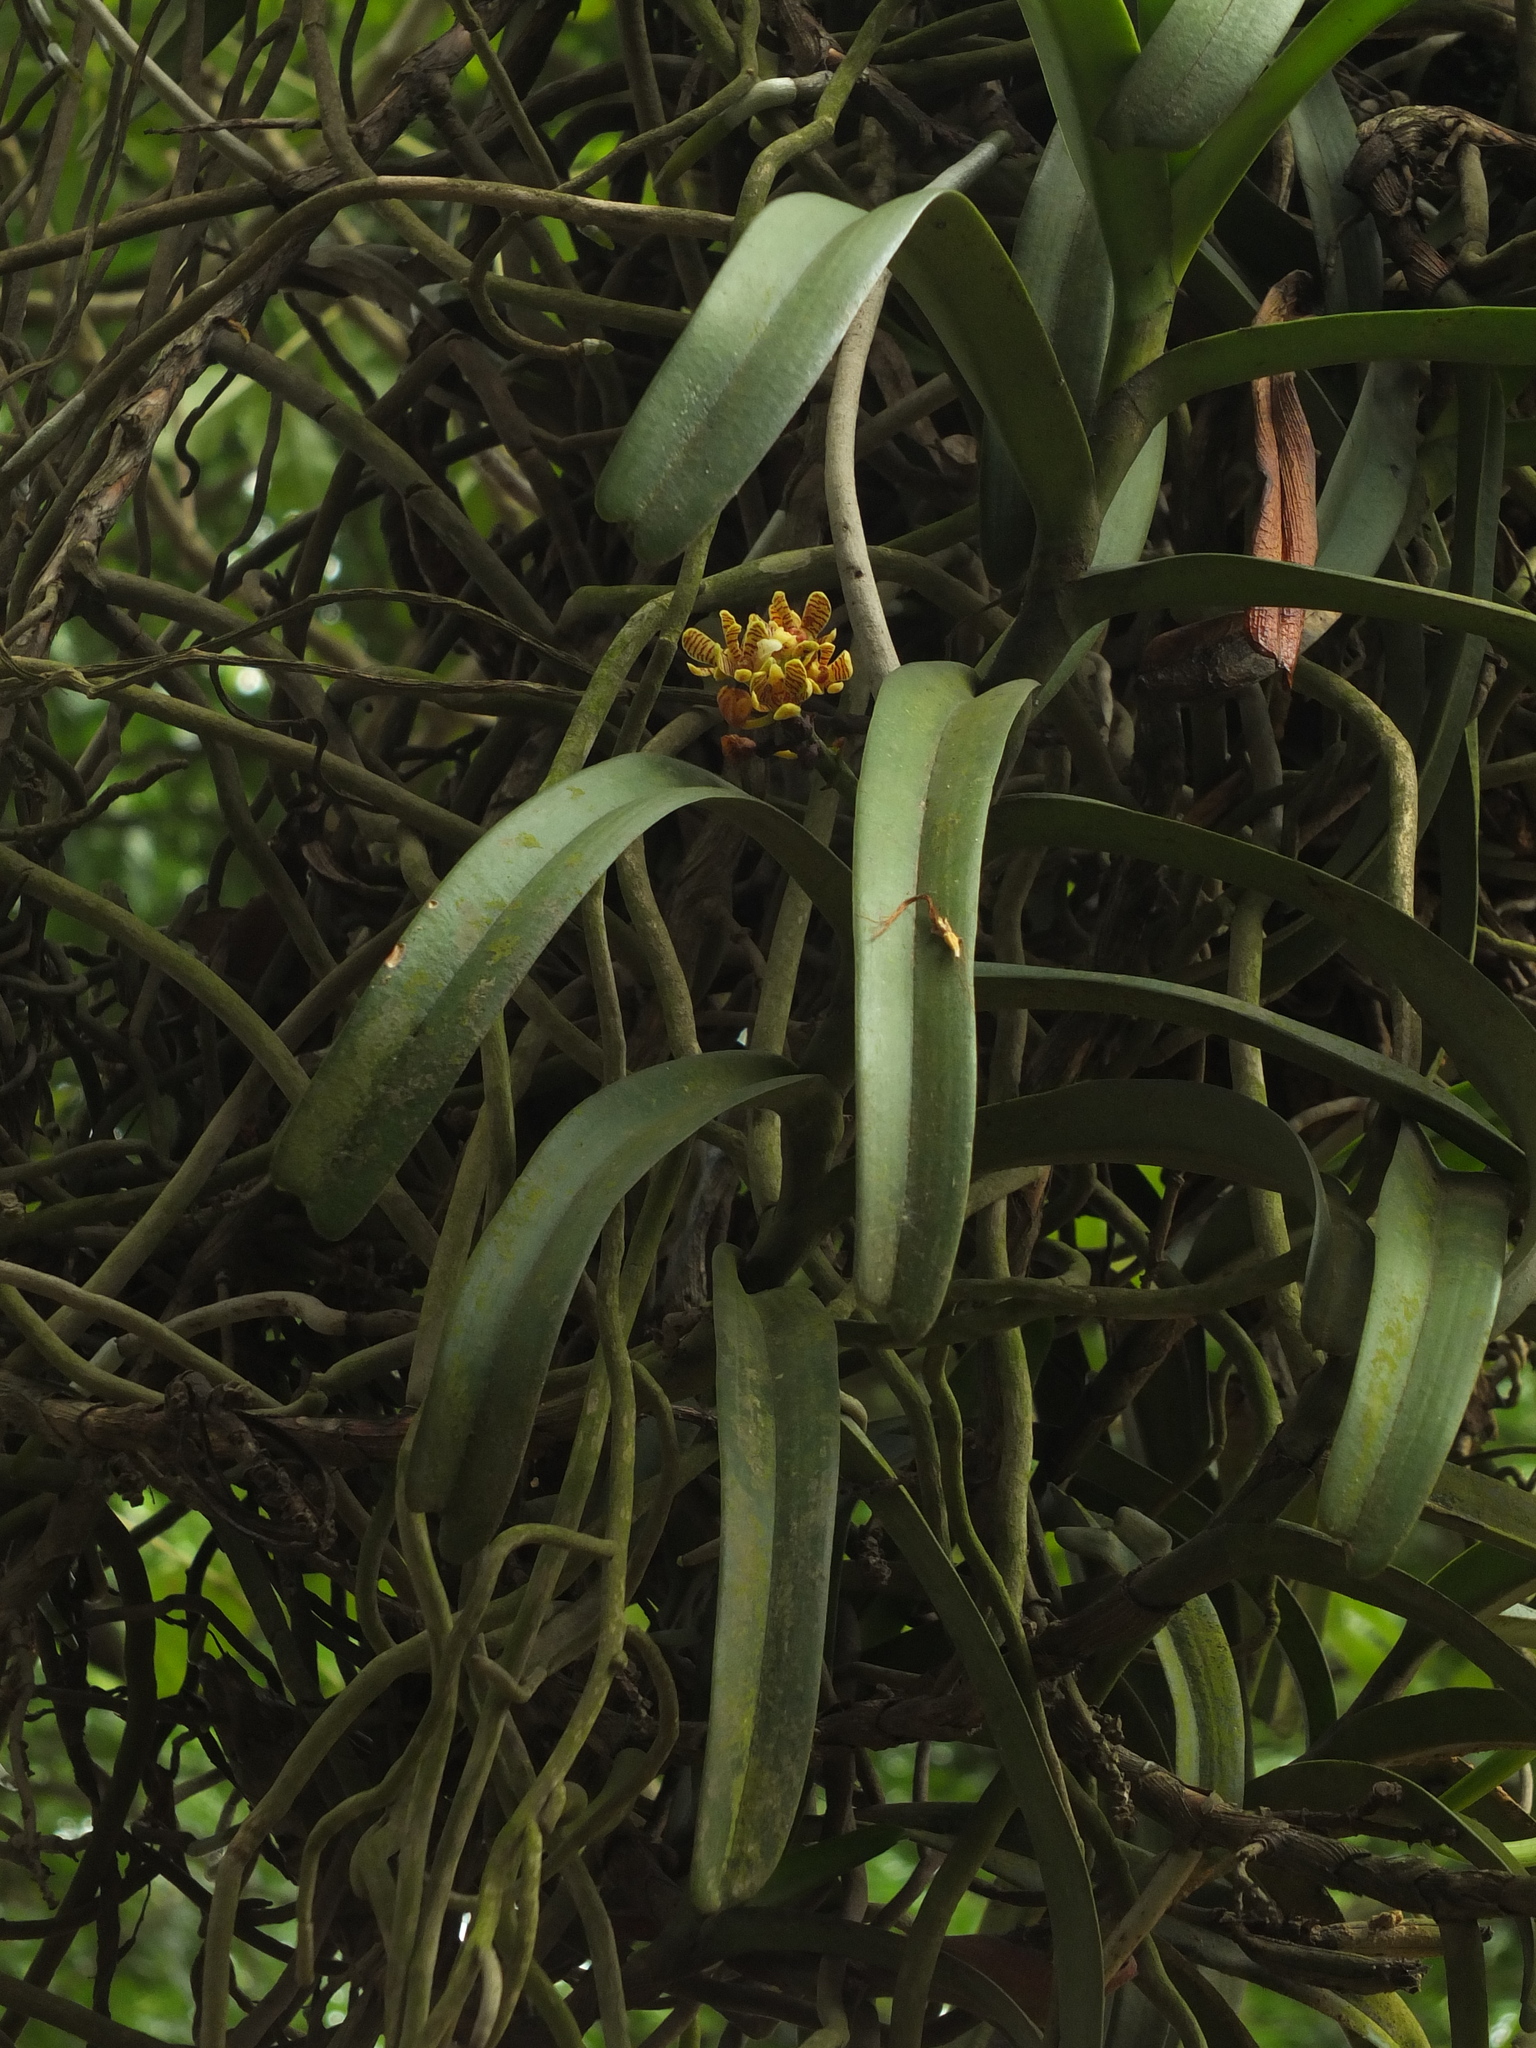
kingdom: Plantae
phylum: Tracheophyta
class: Liliopsida
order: Asparagales
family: Orchidaceae
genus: Acampe
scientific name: Acampe praemorsa
